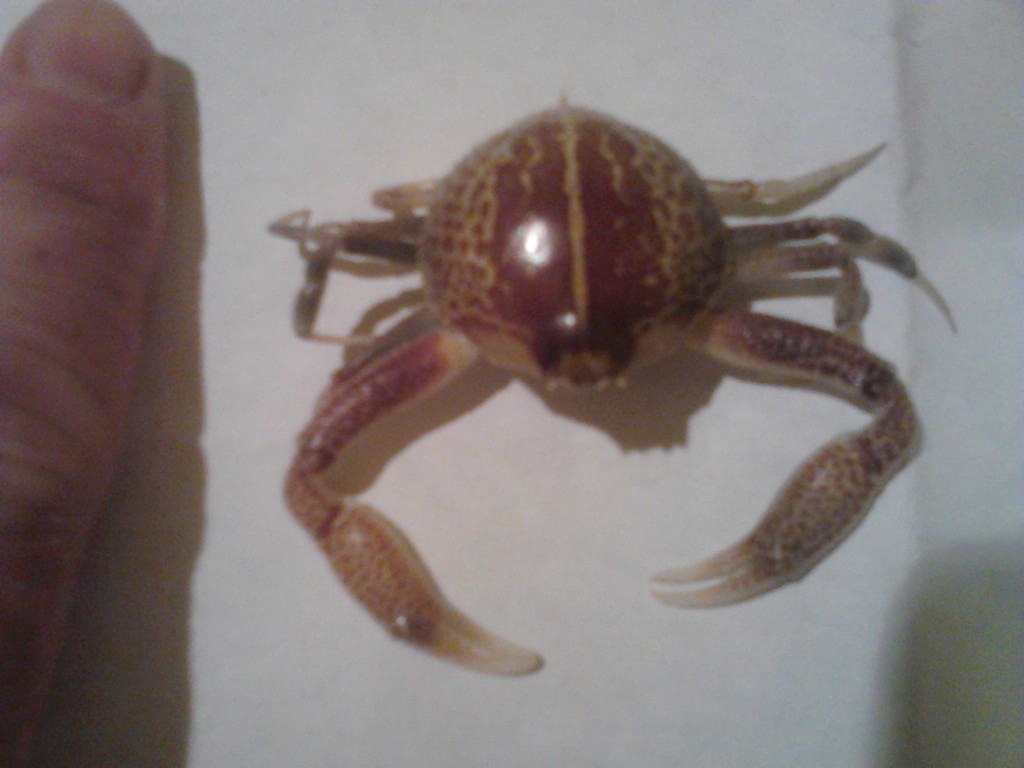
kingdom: Animalia
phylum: Arthropoda
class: Malacostraca
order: Decapoda
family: Leucosiidae
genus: Persephona
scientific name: Persephona aquilonaris
